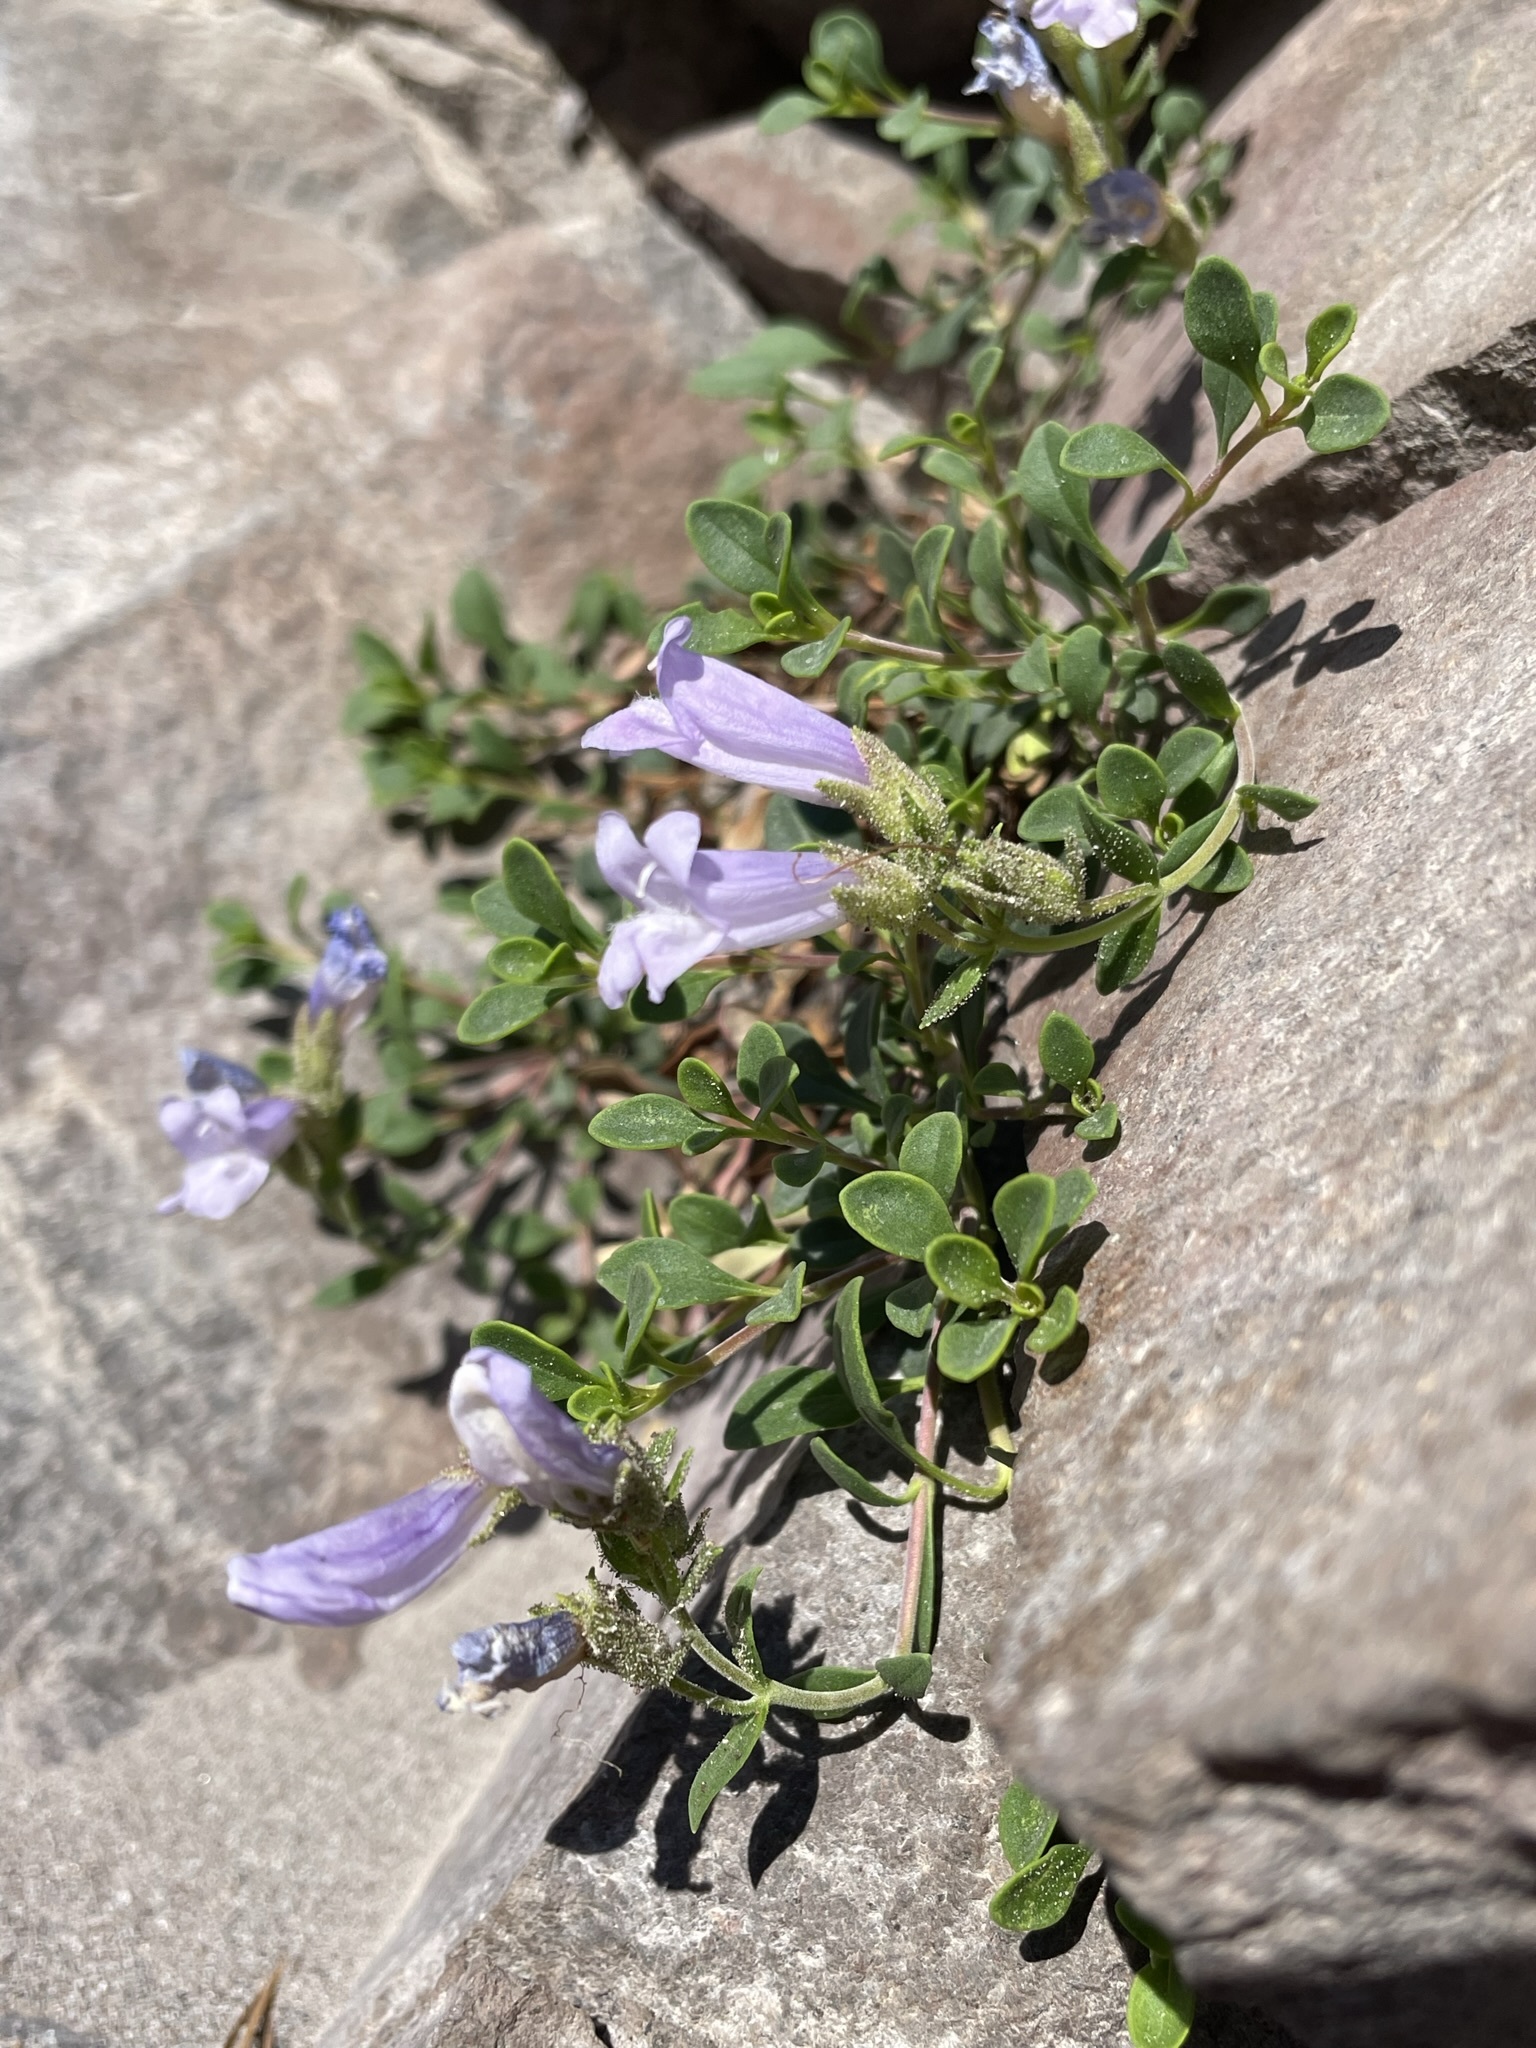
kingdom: Plantae
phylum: Tracheophyta
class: Magnoliopsida
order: Lamiales
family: Plantaginaceae
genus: Penstemon
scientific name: Penstemon davidsonii
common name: Davidson's penstemon
